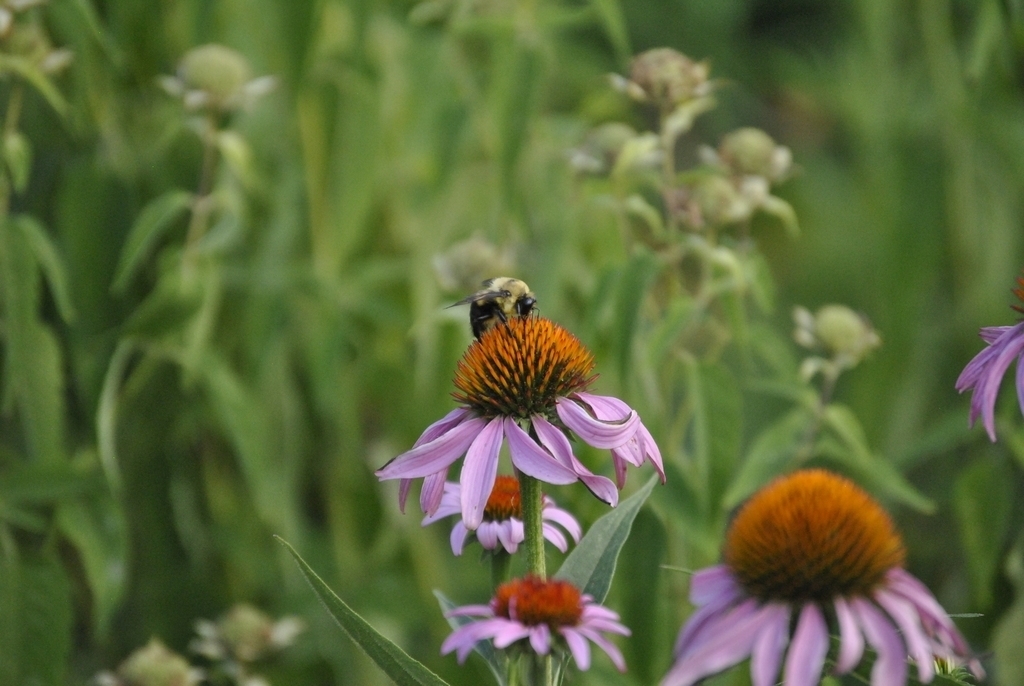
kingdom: Animalia
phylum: Arthropoda
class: Insecta
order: Hymenoptera
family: Apidae
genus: Bombus
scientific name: Bombus griseocollis
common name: Brown-belted bumble bee
